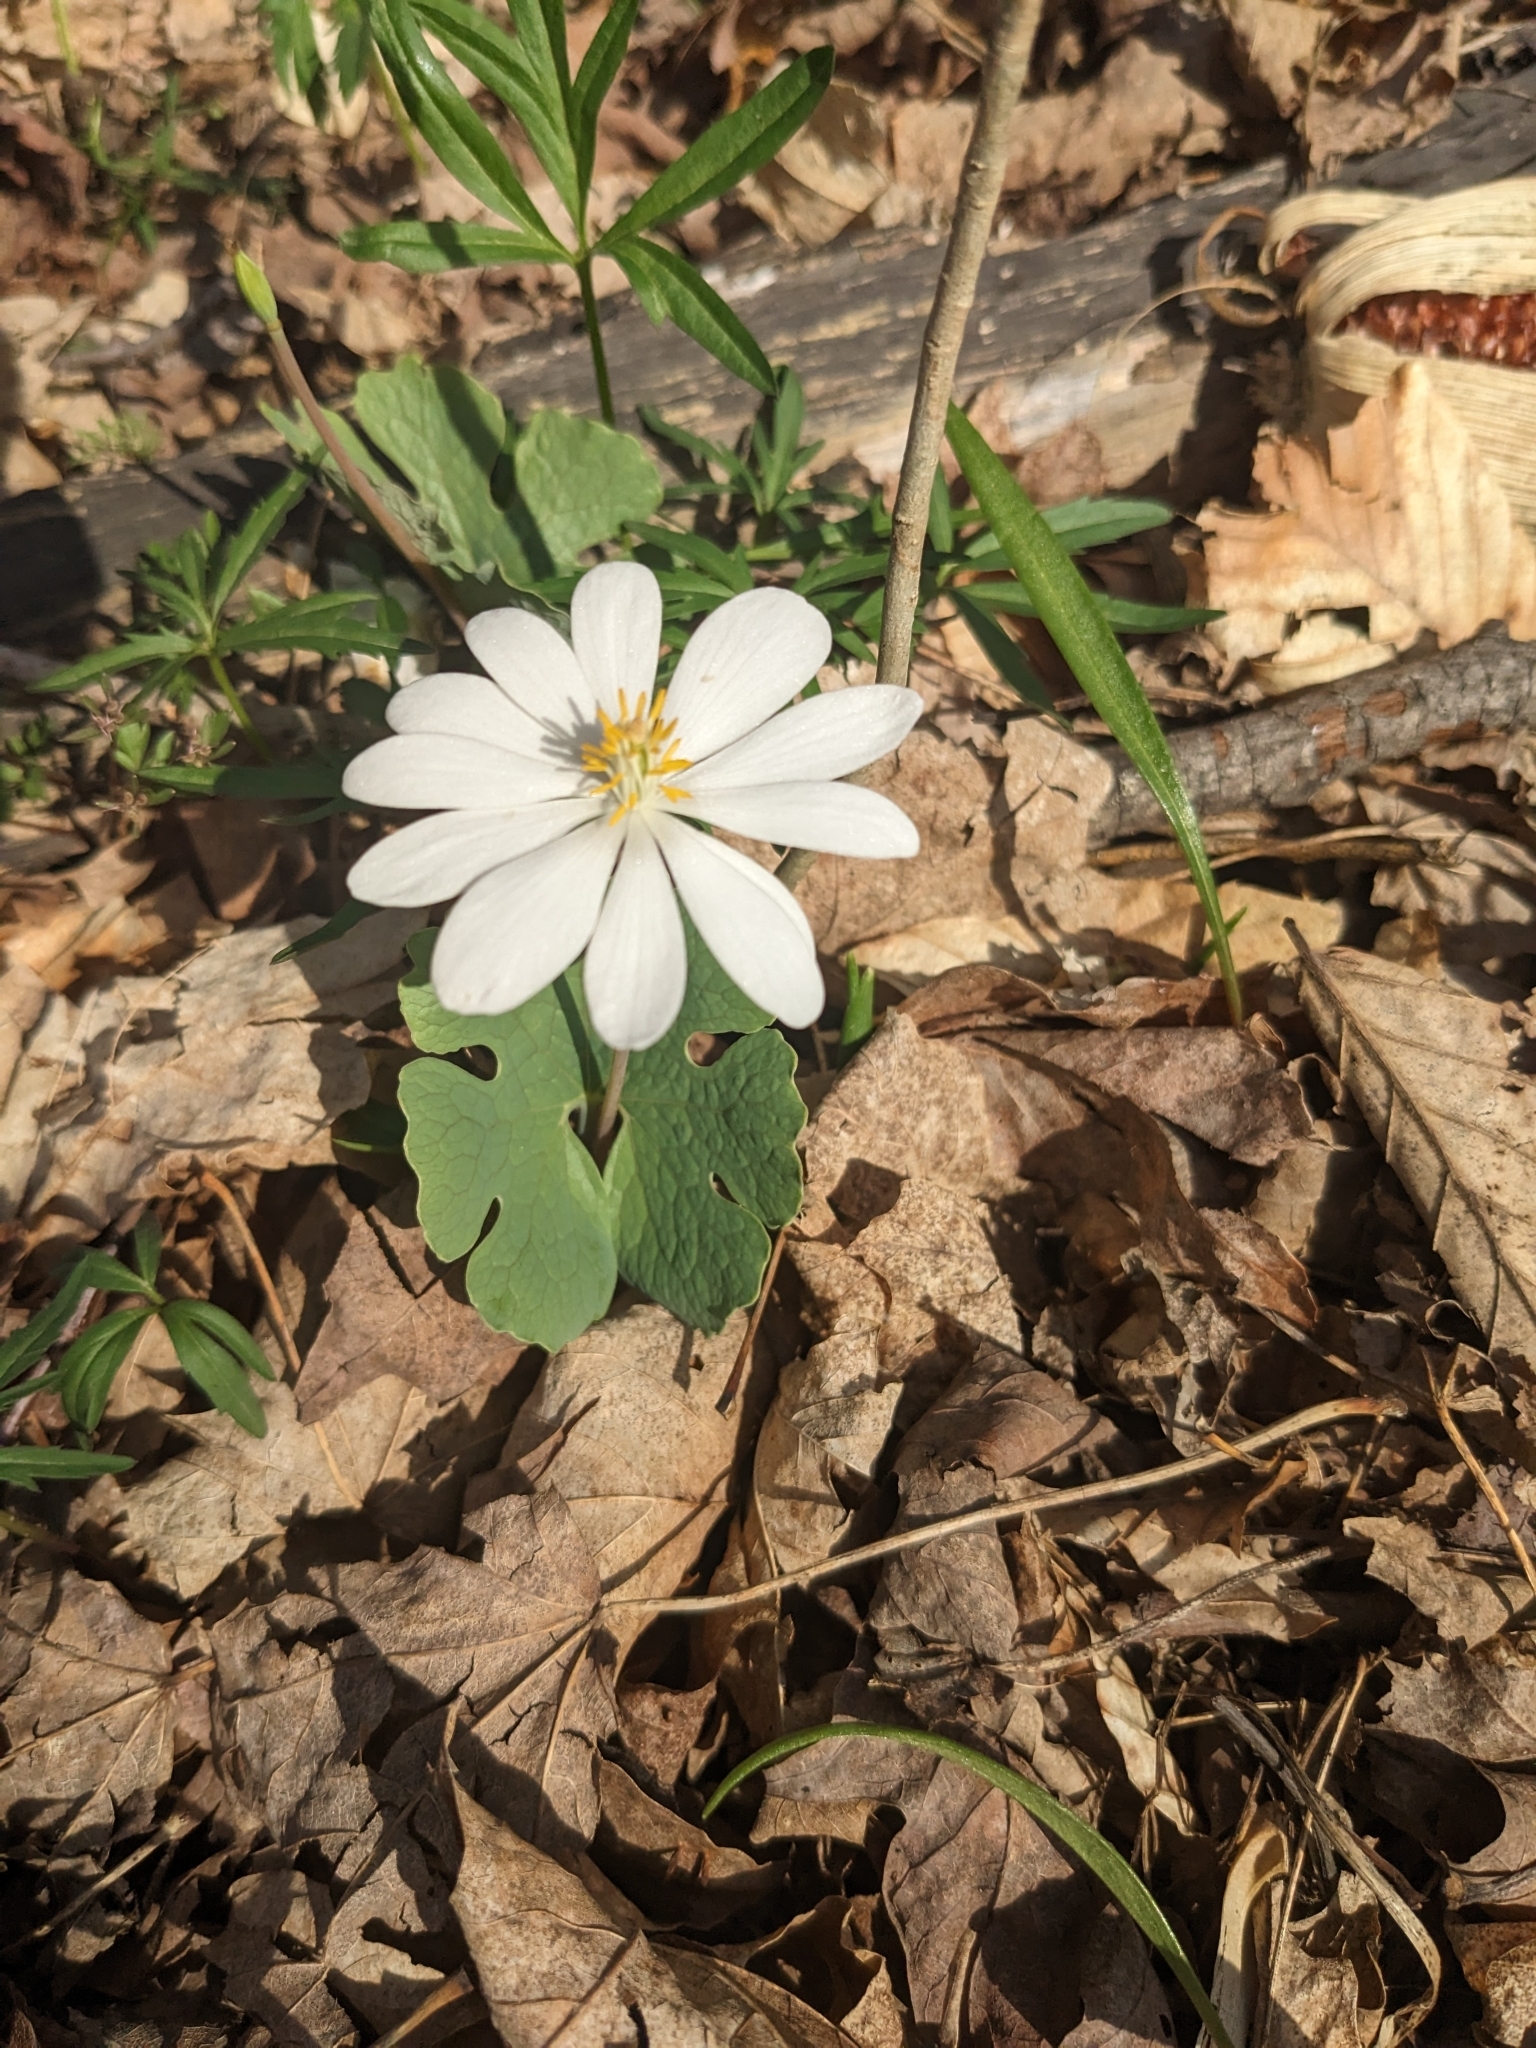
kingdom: Plantae
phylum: Tracheophyta
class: Magnoliopsida
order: Ranunculales
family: Papaveraceae
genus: Sanguinaria
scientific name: Sanguinaria canadensis
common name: Bloodroot
